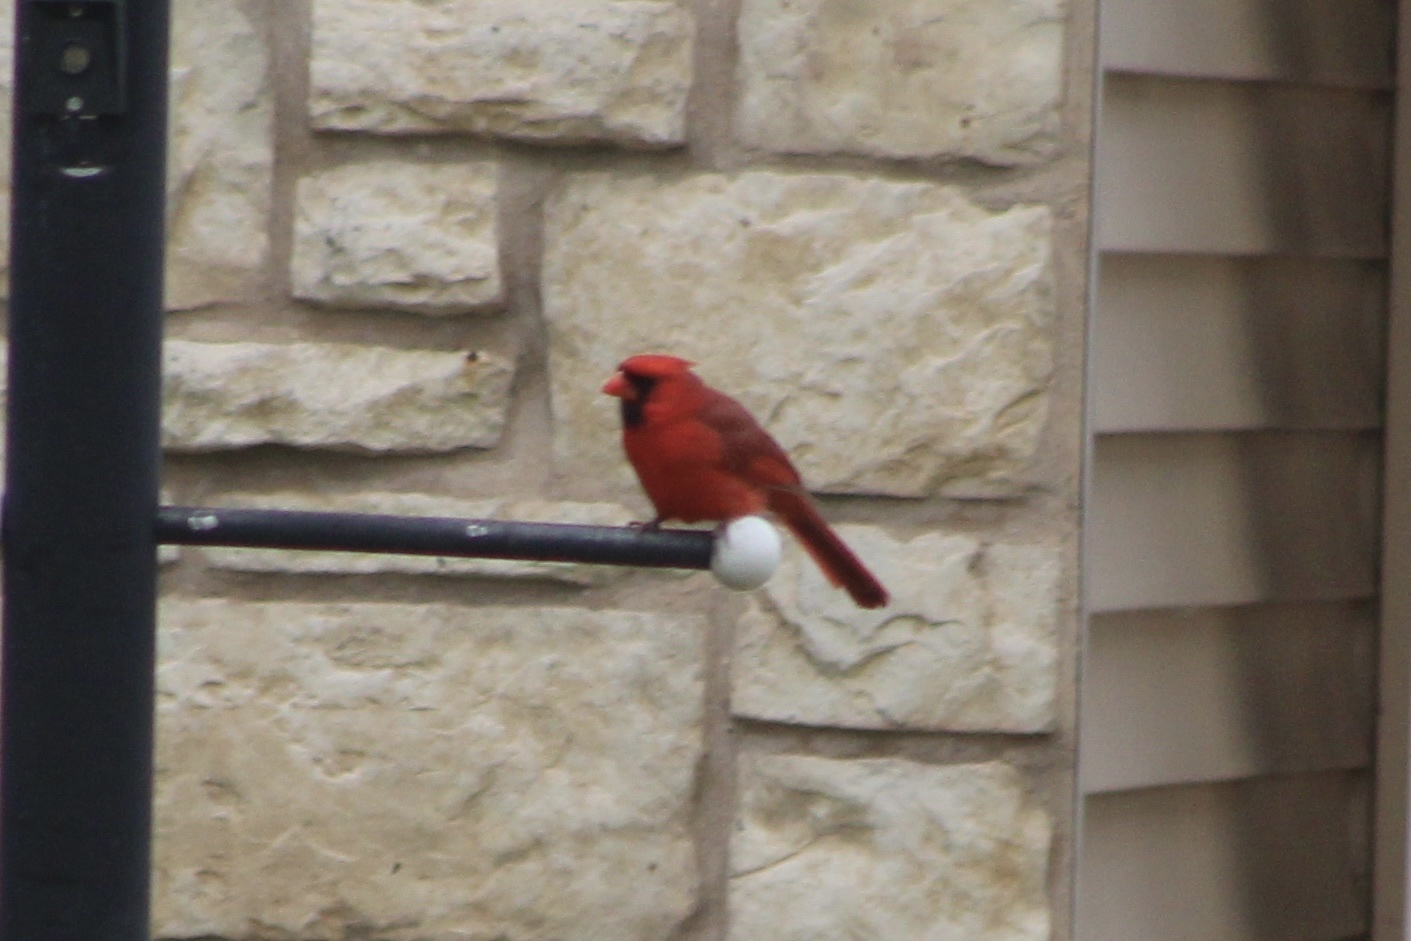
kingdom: Animalia
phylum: Chordata
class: Aves
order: Passeriformes
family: Cardinalidae
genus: Cardinalis
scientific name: Cardinalis cardinalis
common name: Northern cardinal
